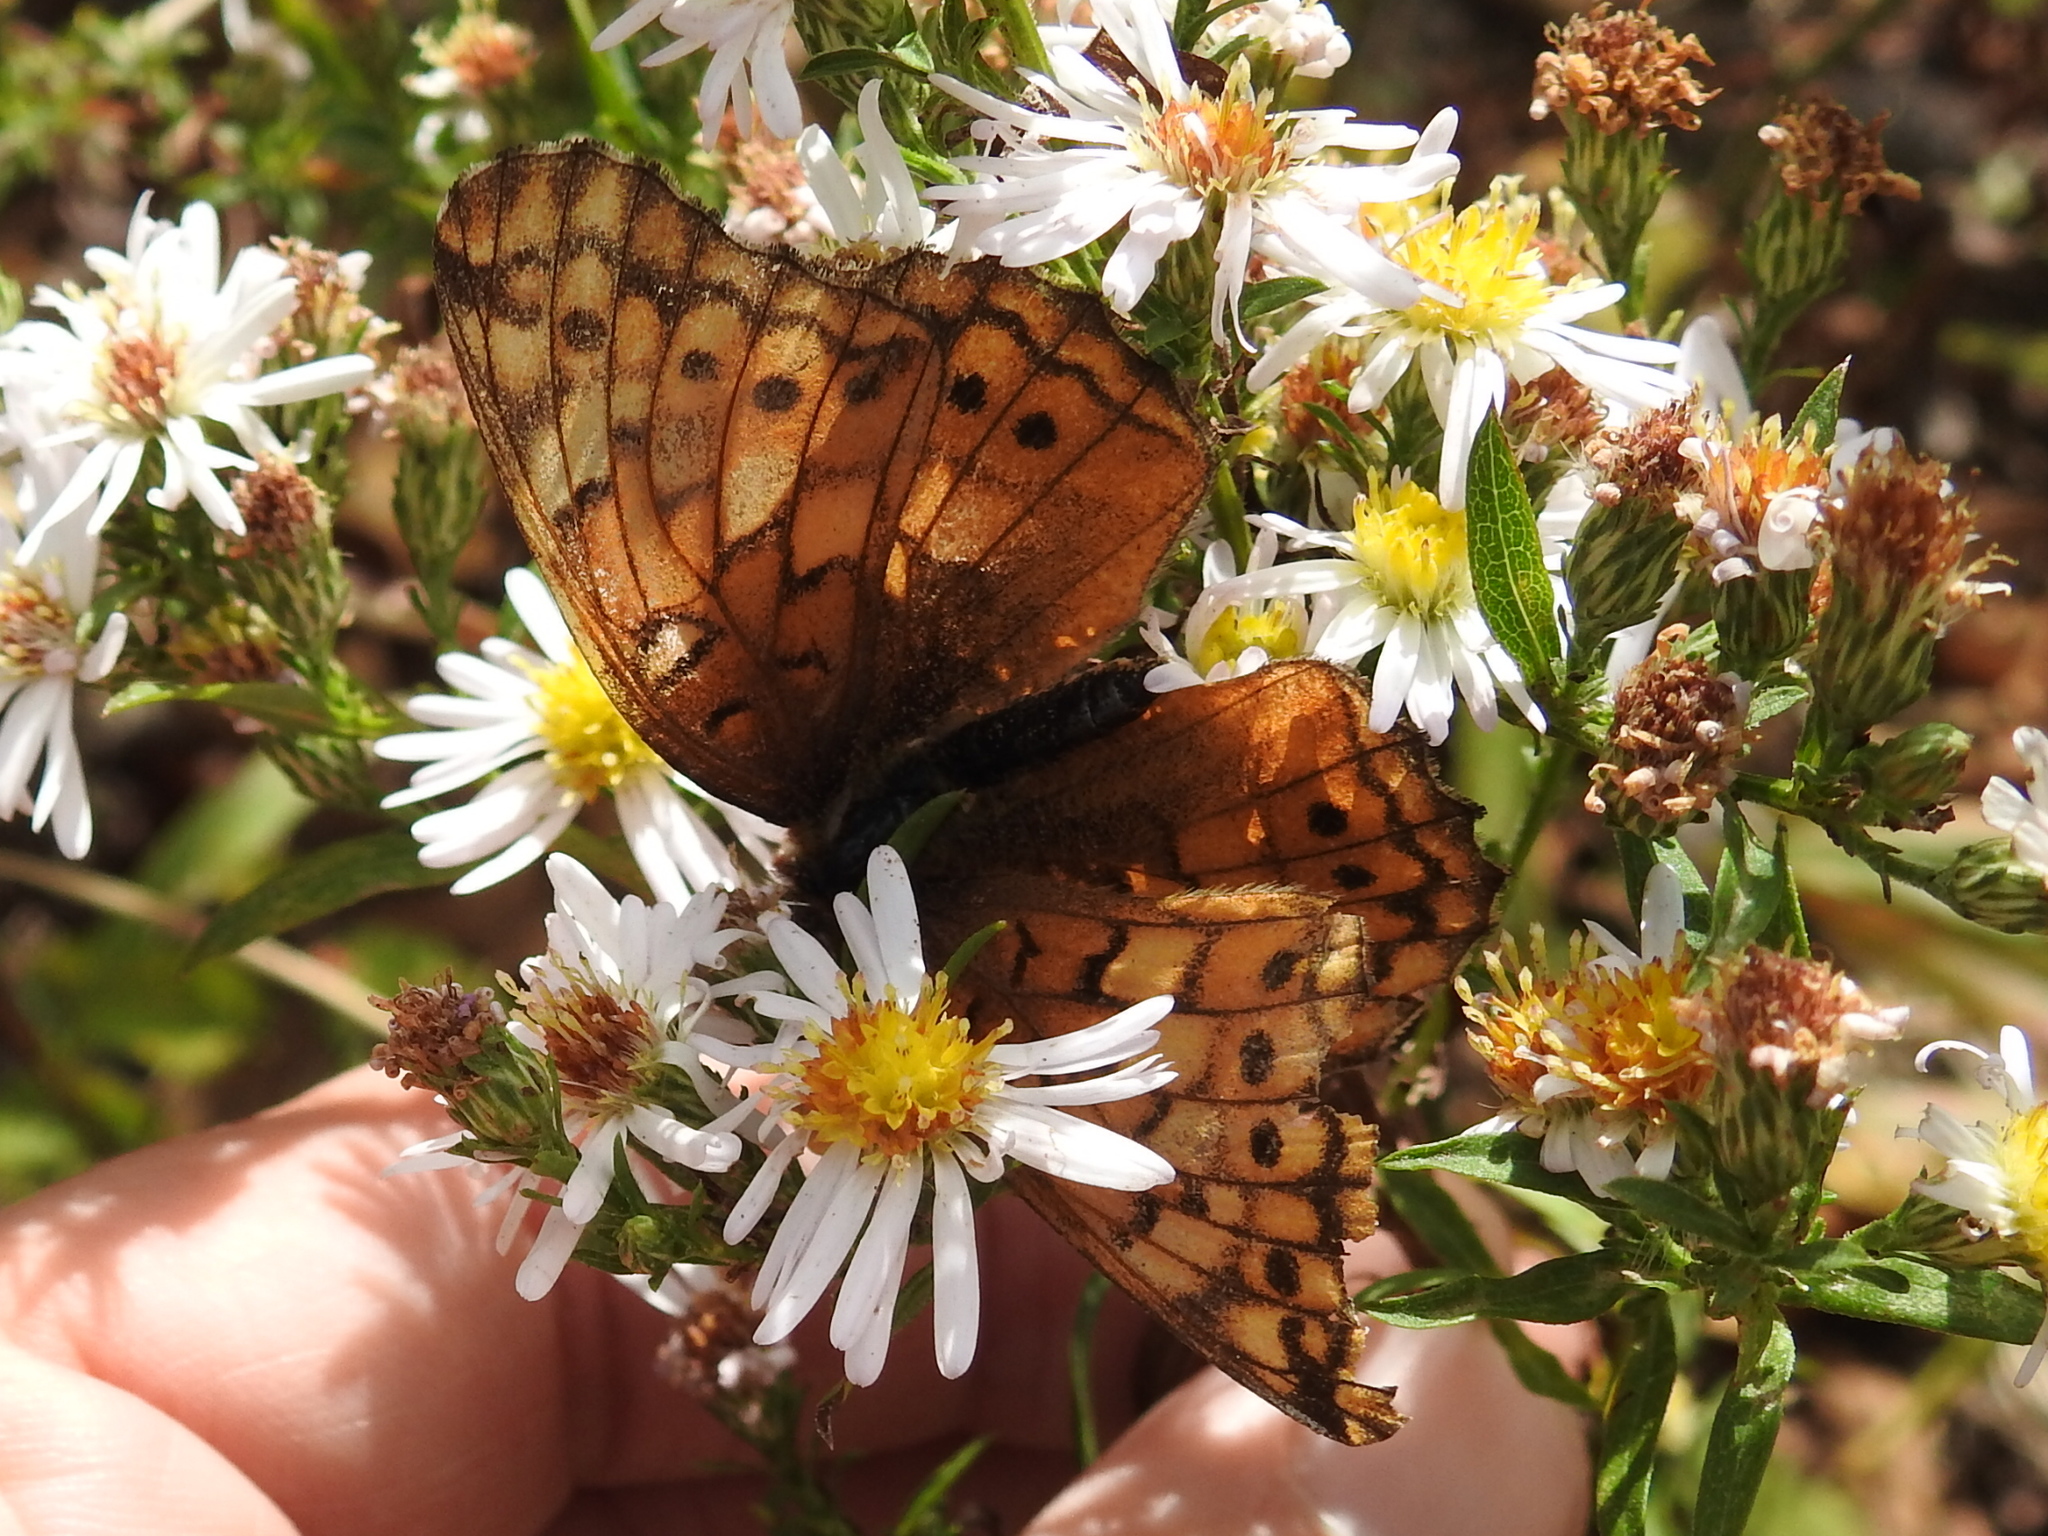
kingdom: Animalia
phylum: Arthropoda
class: Insecta
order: Lepidoptera
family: Nymphalidae
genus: Euptoieta
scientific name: Euptoieta claudia
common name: Variegated fritillary
